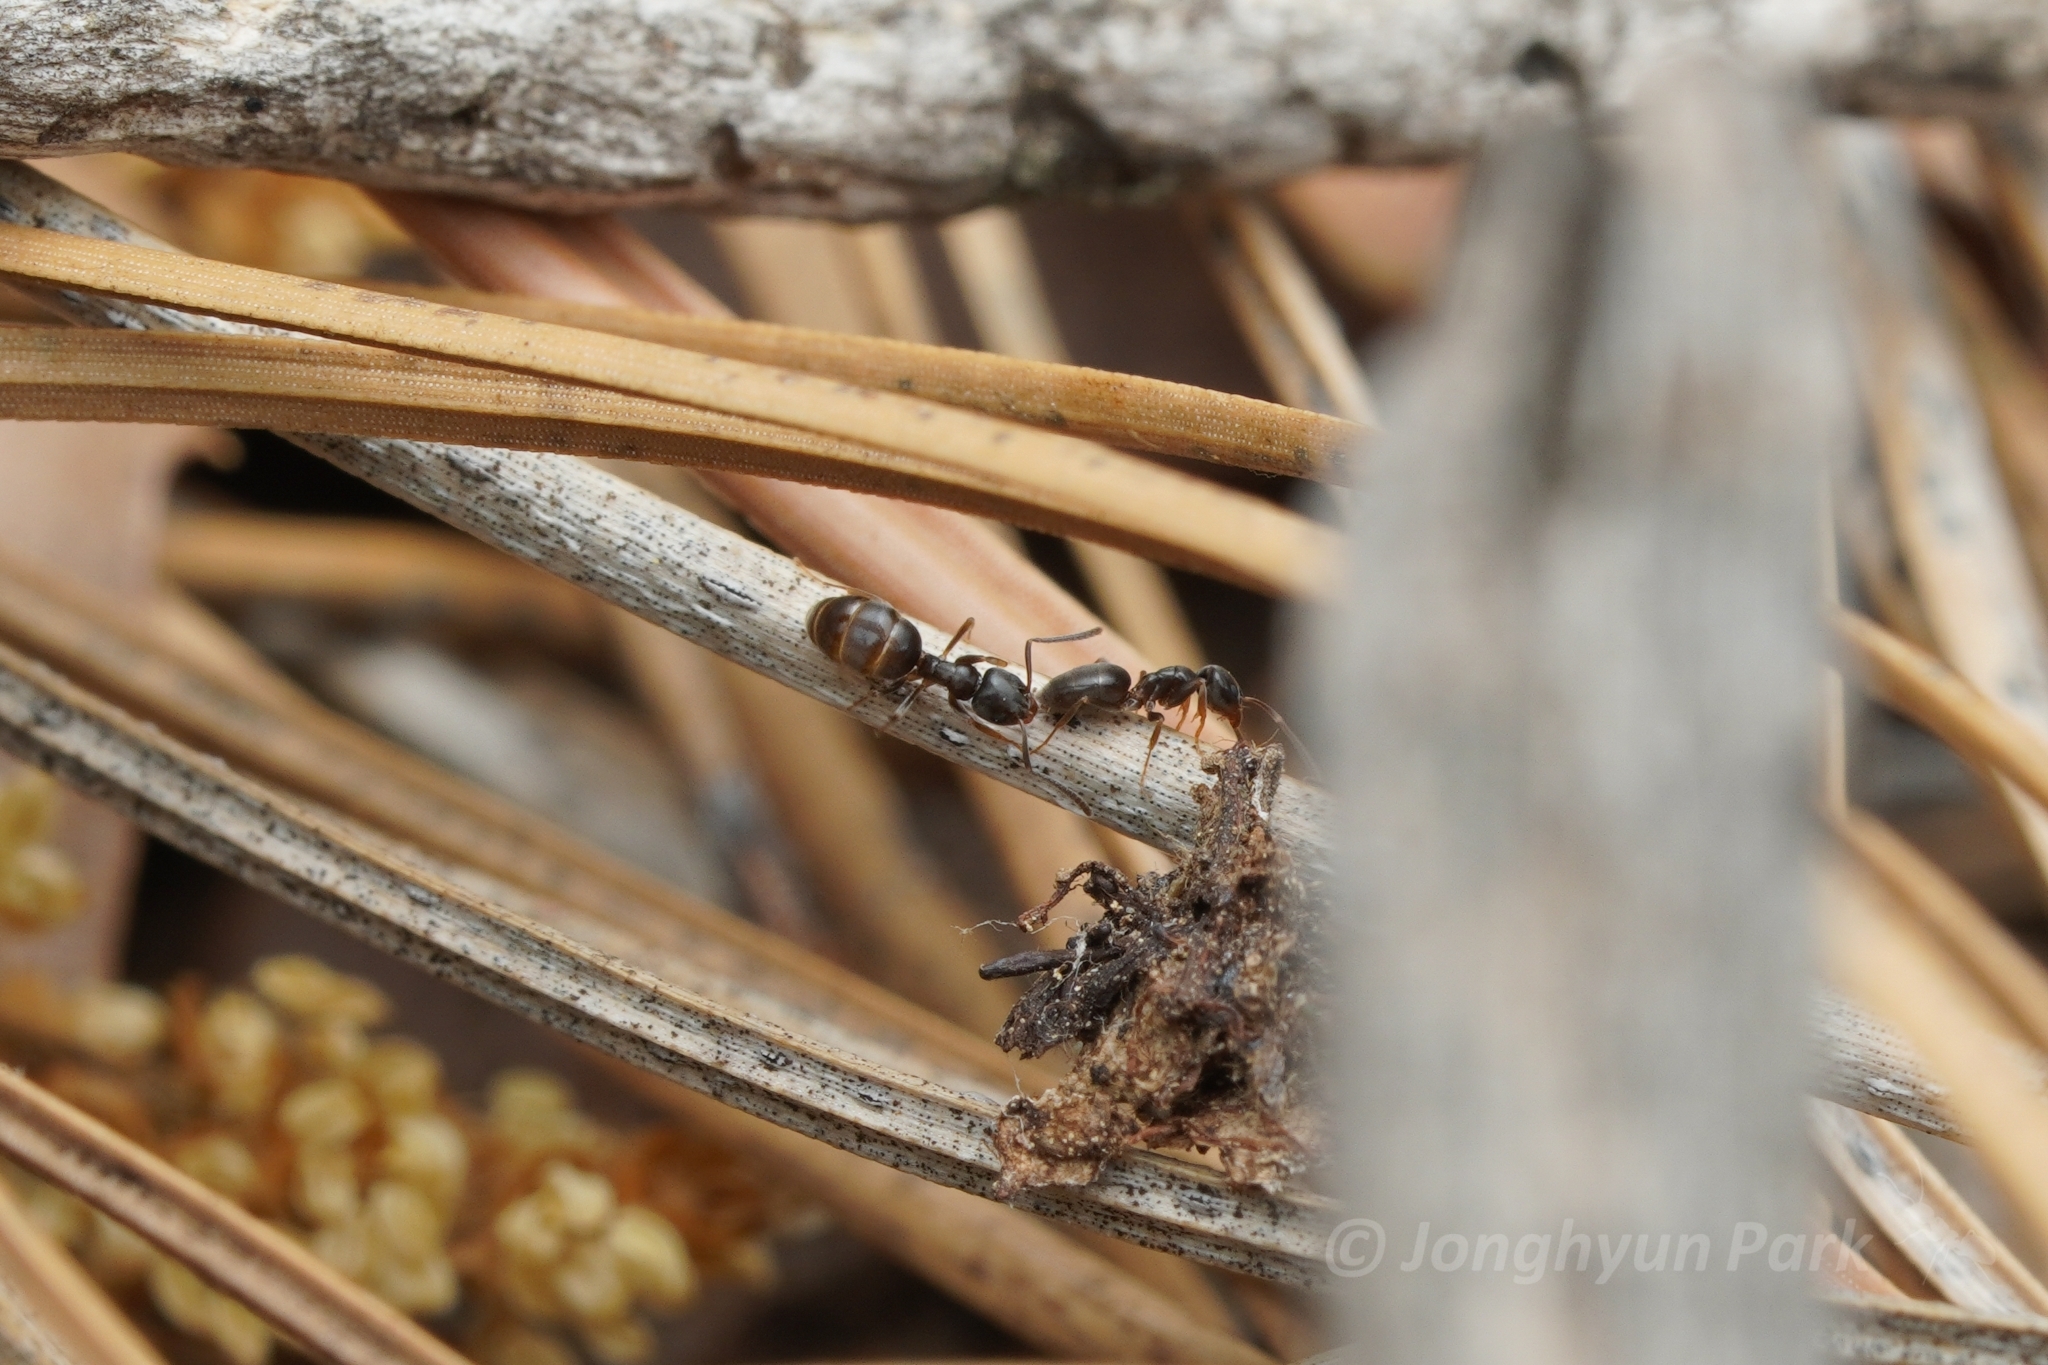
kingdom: Animalia
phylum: Arthropoda
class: Insecta
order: Hymenoptera
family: Formicidae
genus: Tapinoma
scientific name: Tapinoma sessile
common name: Odorous house ant
